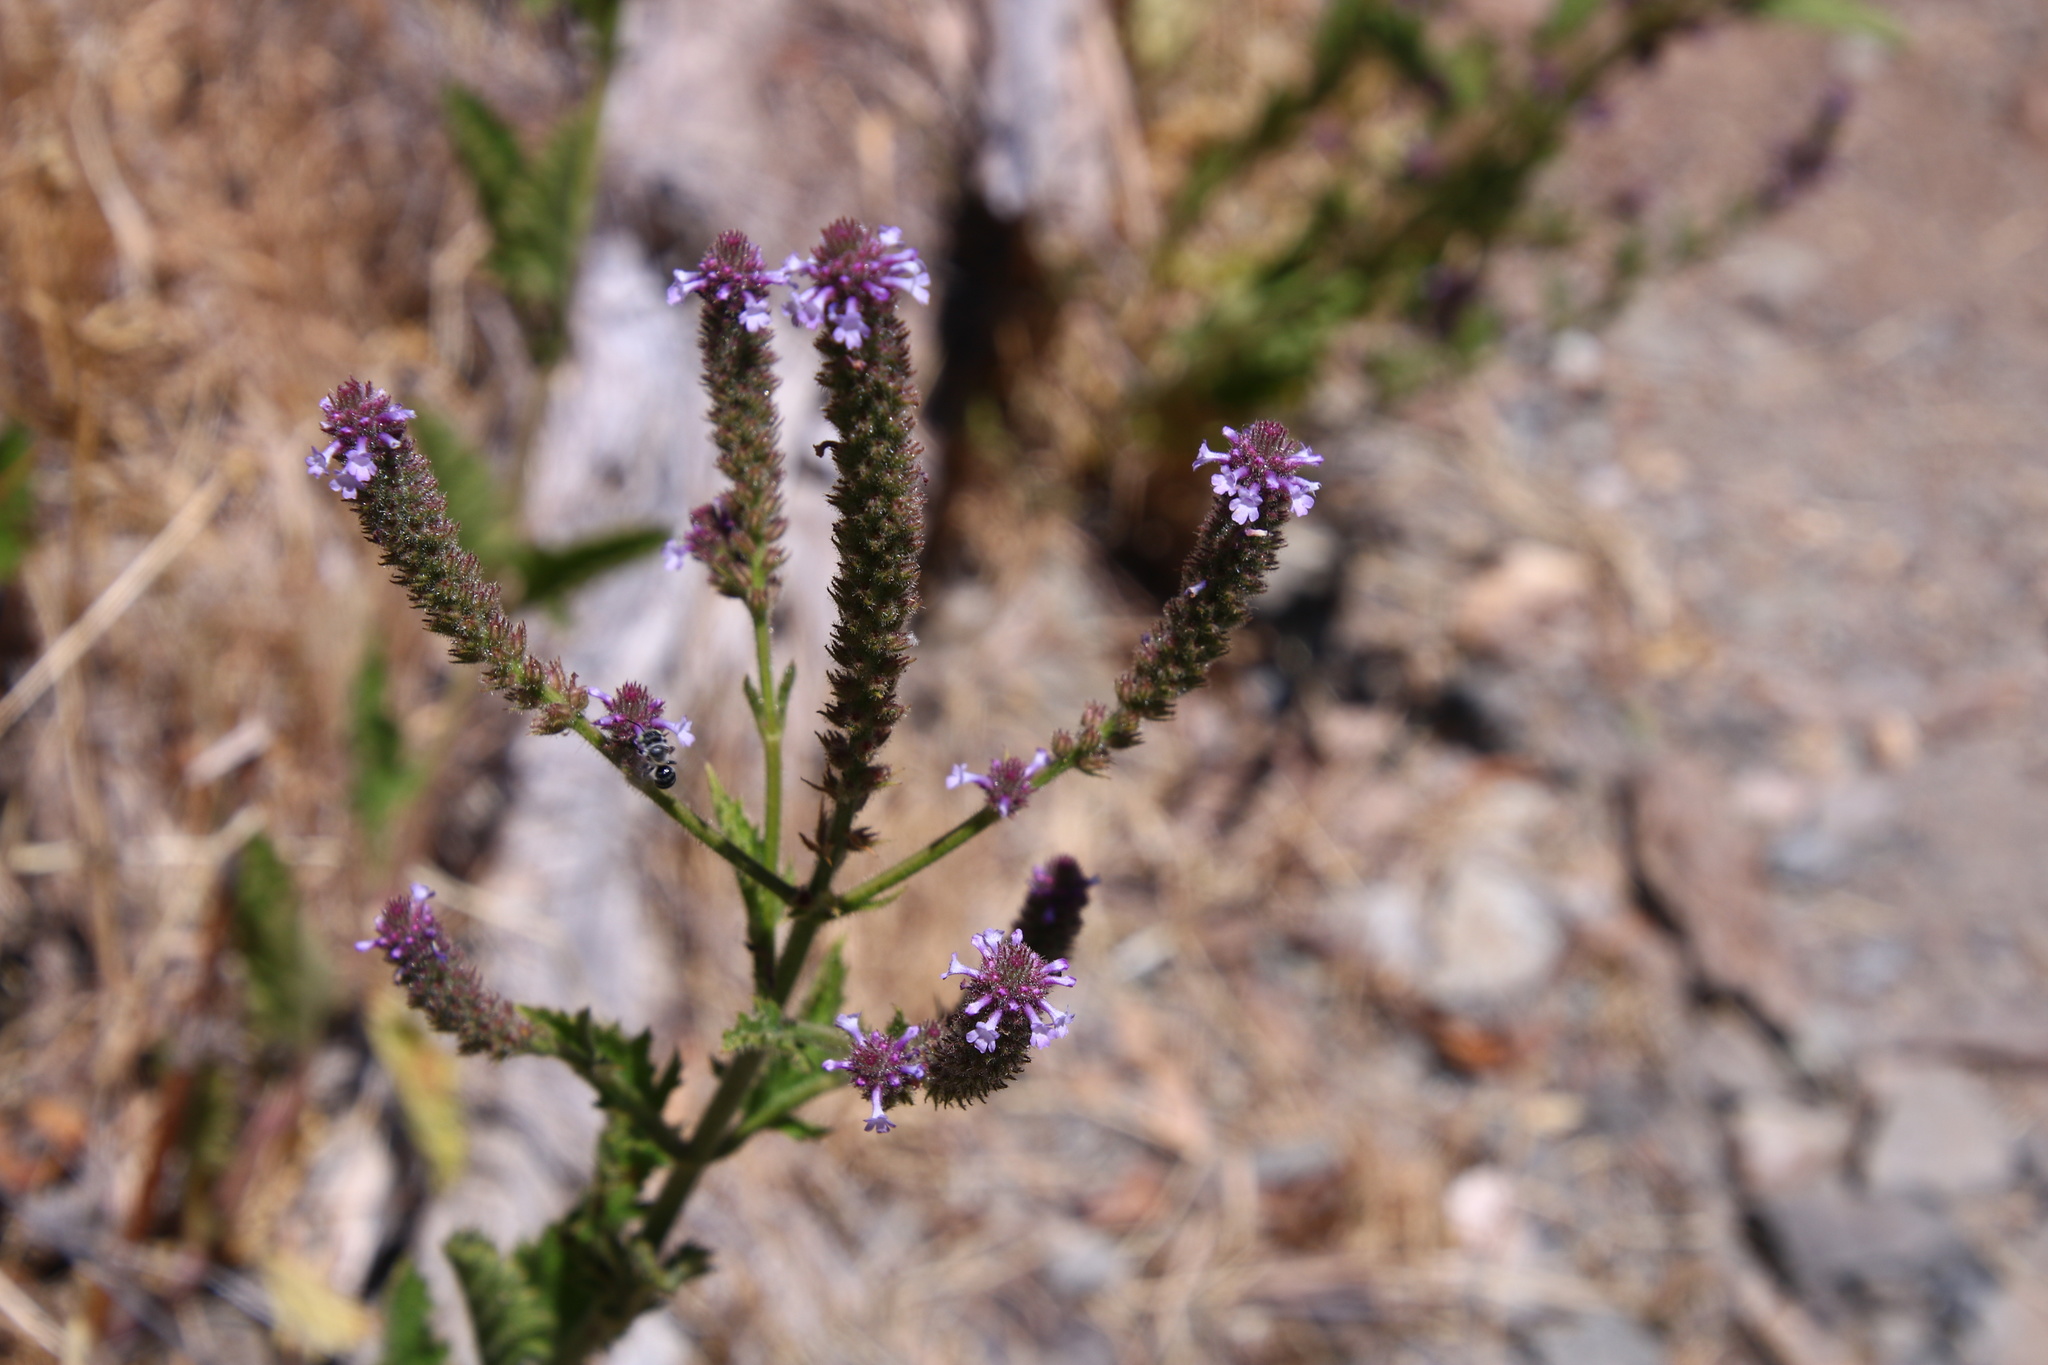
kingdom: Plantae
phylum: Tracheophyta
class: Magnoliopsida
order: Lamiales
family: Verbenaceae
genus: Verbena
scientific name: Verbena lasiostachys
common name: Vervain
